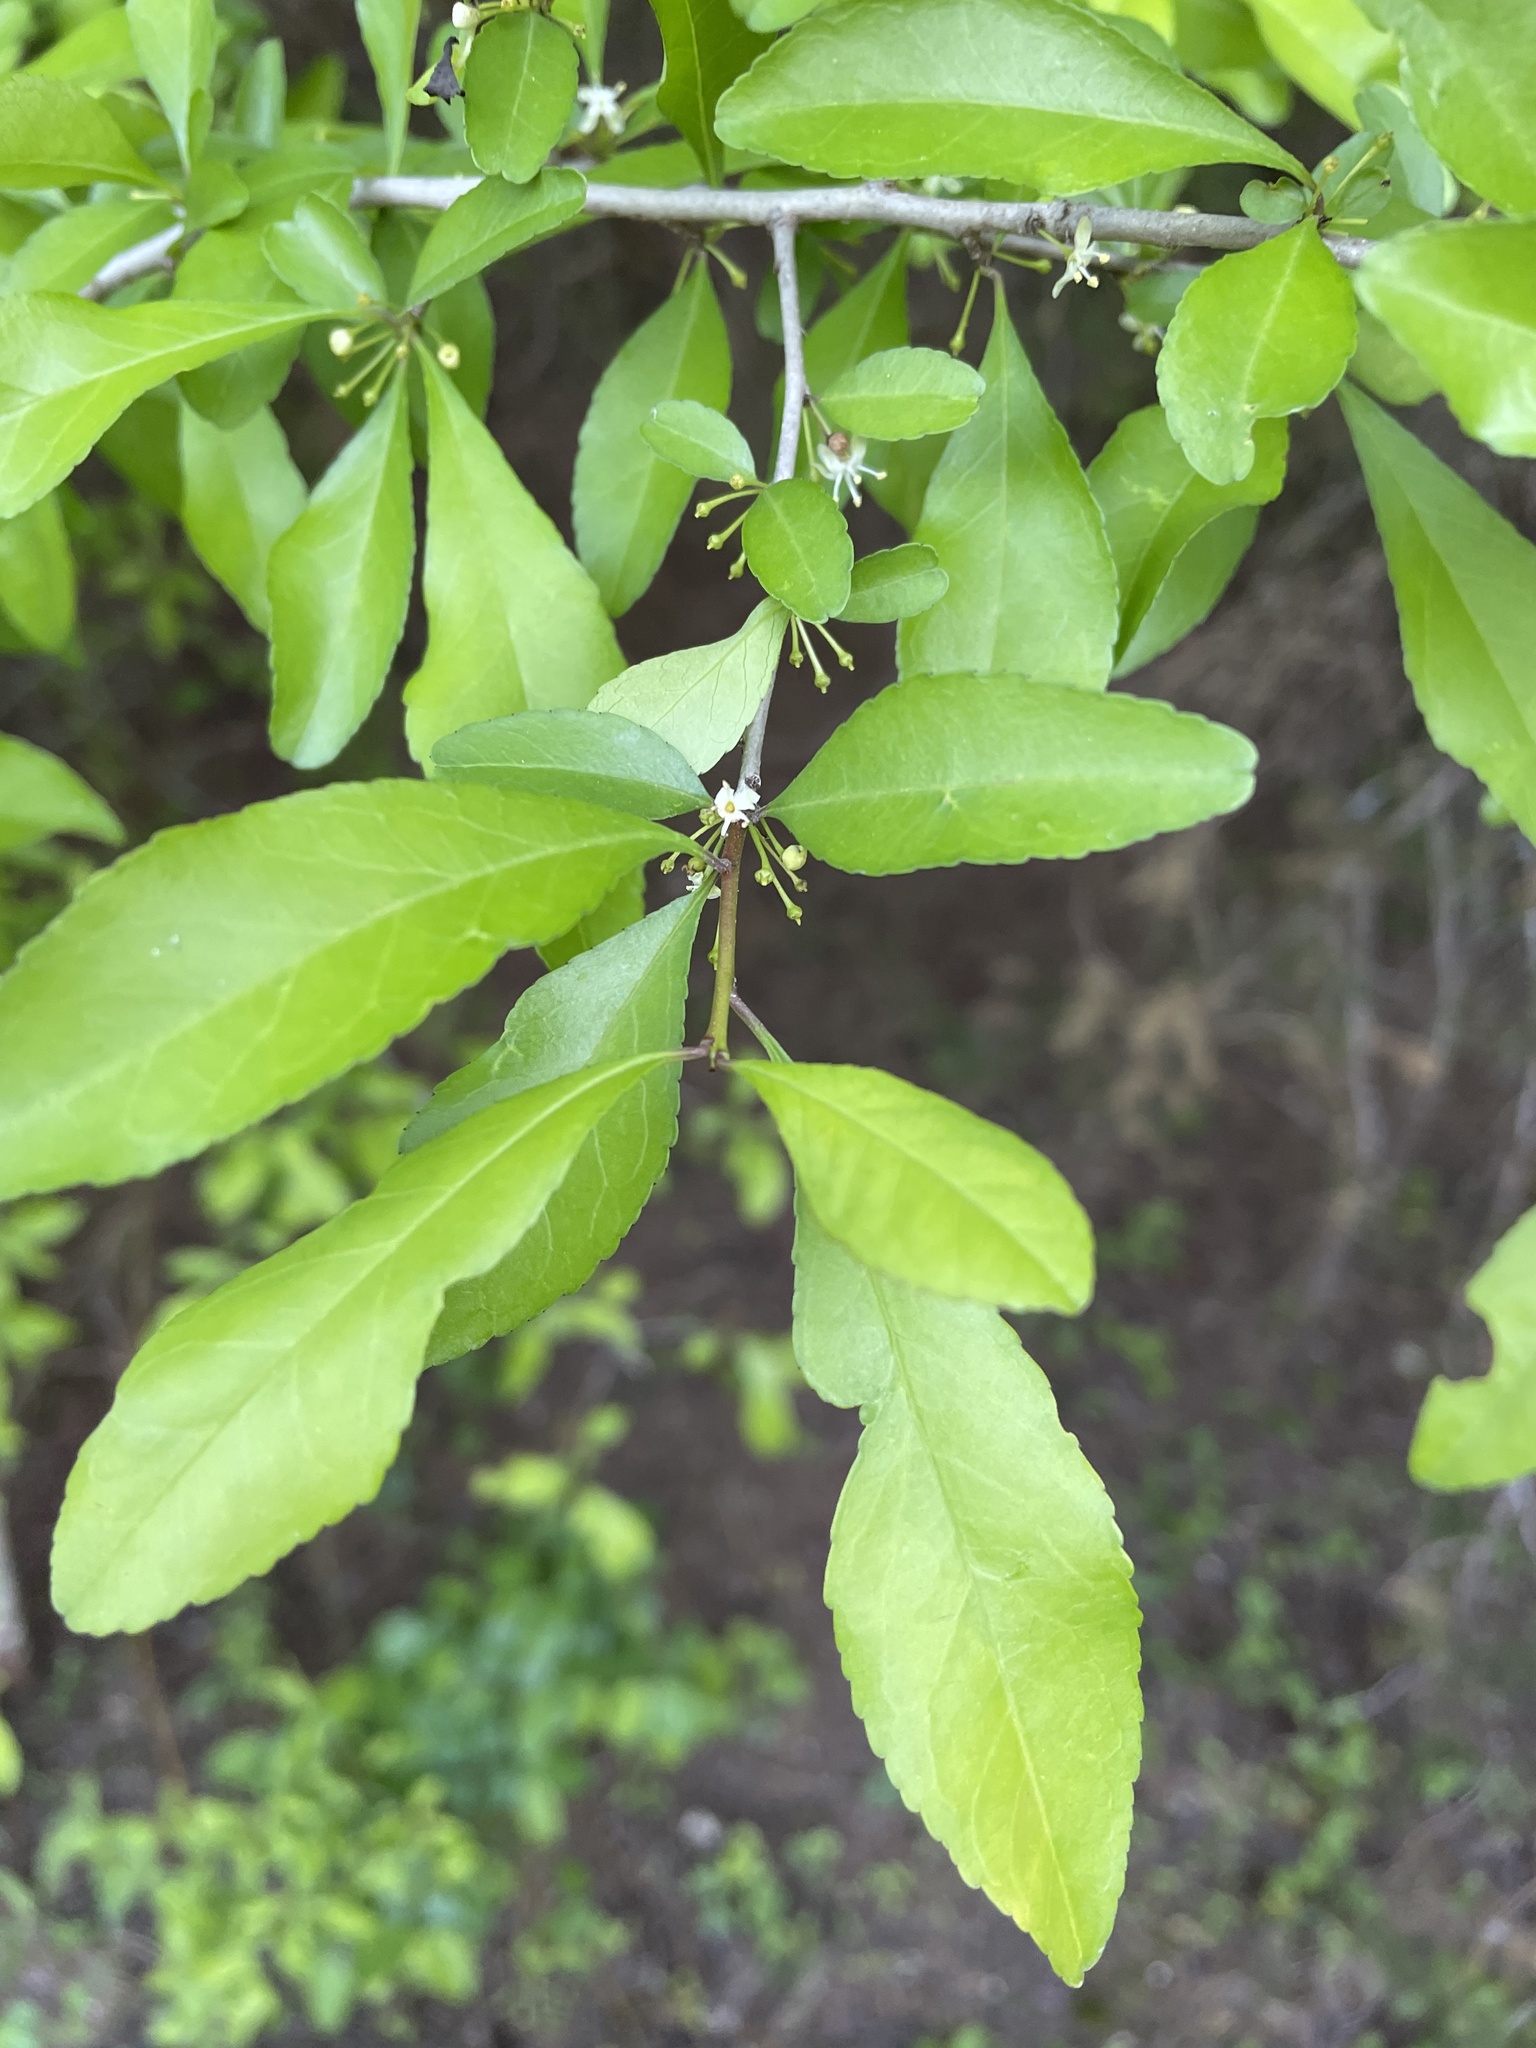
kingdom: Plantae
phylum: Tracheophyta
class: Magnoliopsida
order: Aquifoliales
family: Aquifoliaceae
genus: Ilex
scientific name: Ilex decidua
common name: Possum-haw
